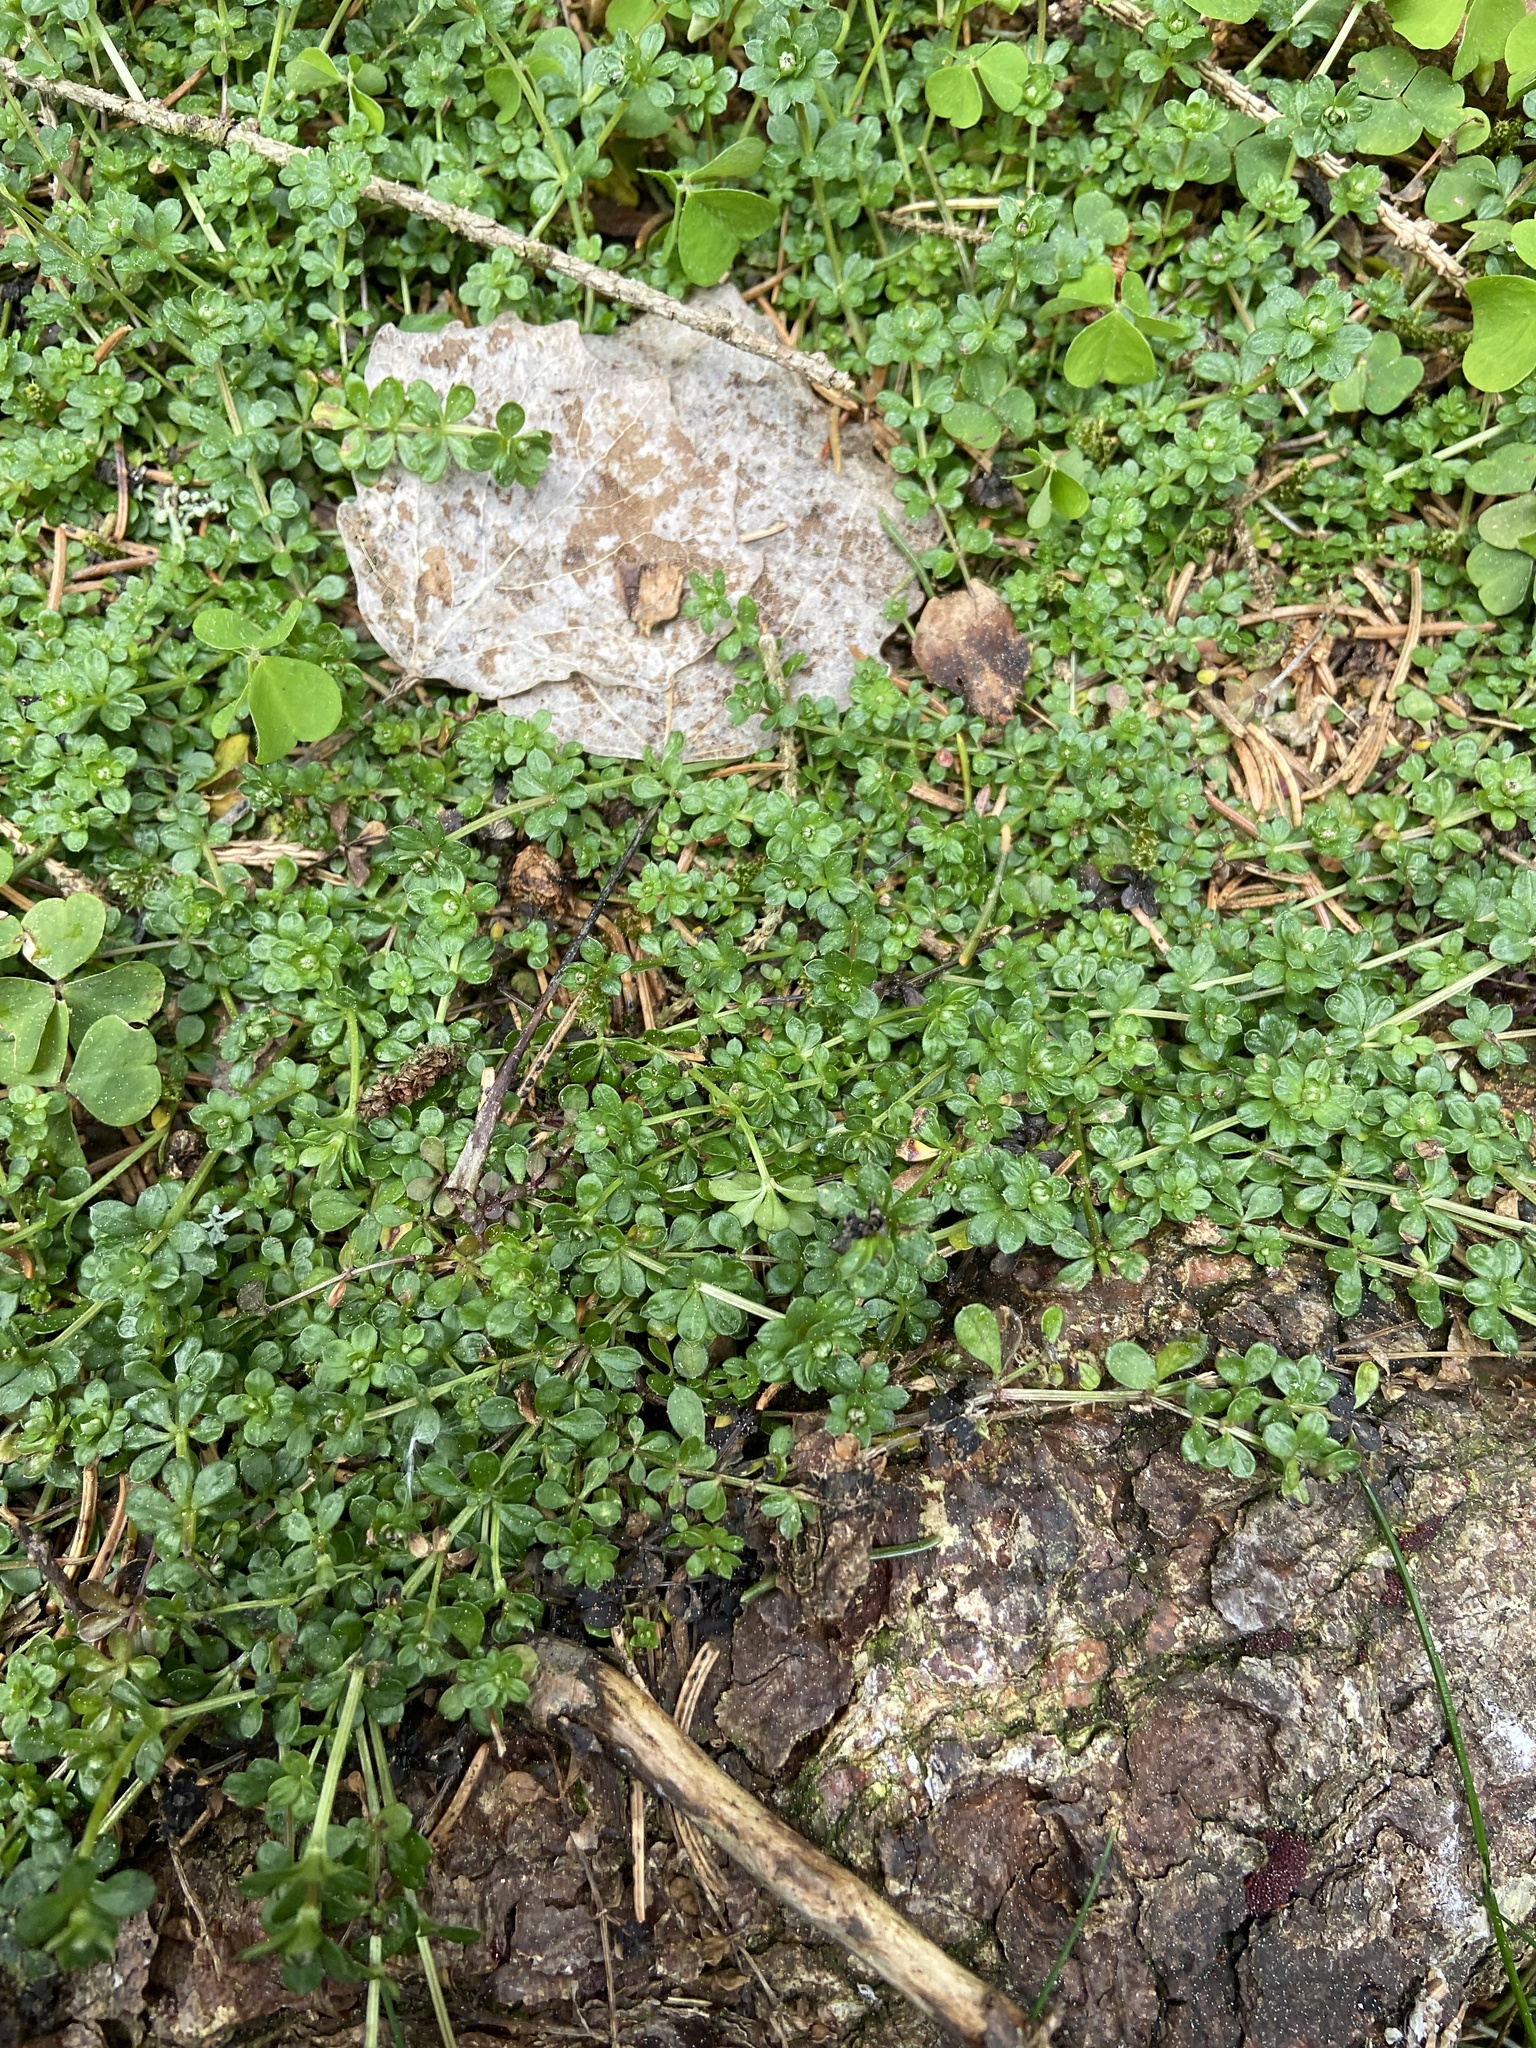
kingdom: Plantae
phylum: Tracheophyta
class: Magnoliopsida
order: Gentianales
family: Rubiaceae
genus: Galium
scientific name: Galium mollugo
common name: Hedge bedstraw
